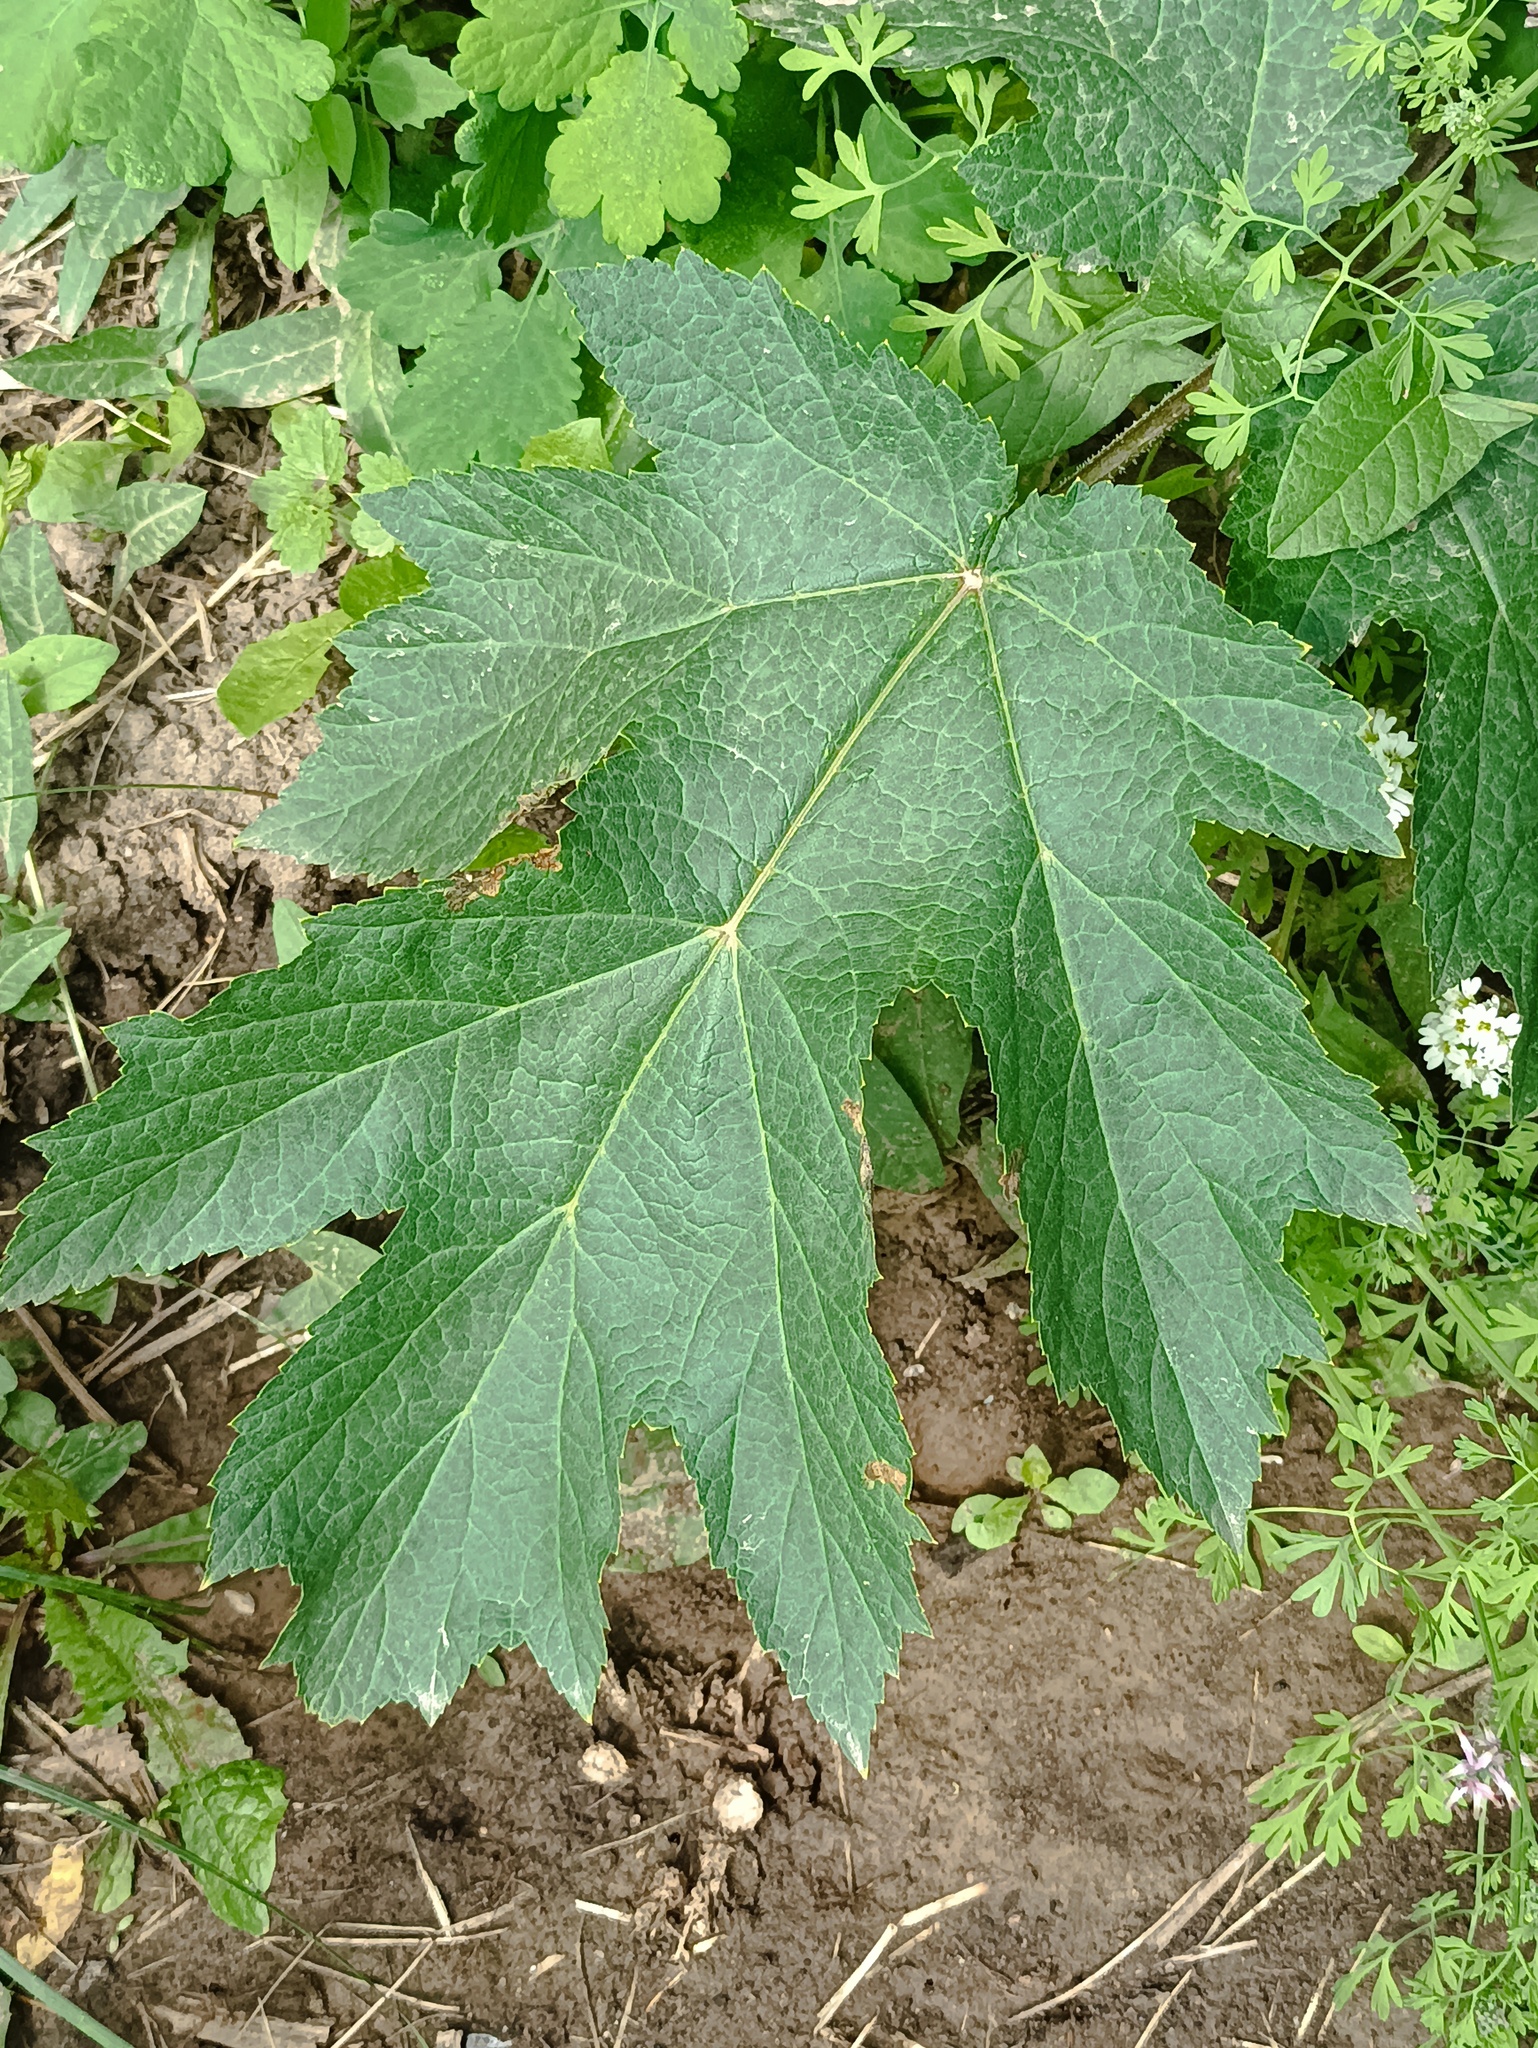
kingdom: Plantae
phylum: Tracheophyta
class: Magnoliopsida
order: Apiales
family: Apiaceae
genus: Heracleum
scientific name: Heracleum sphondylium
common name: Hogweed
